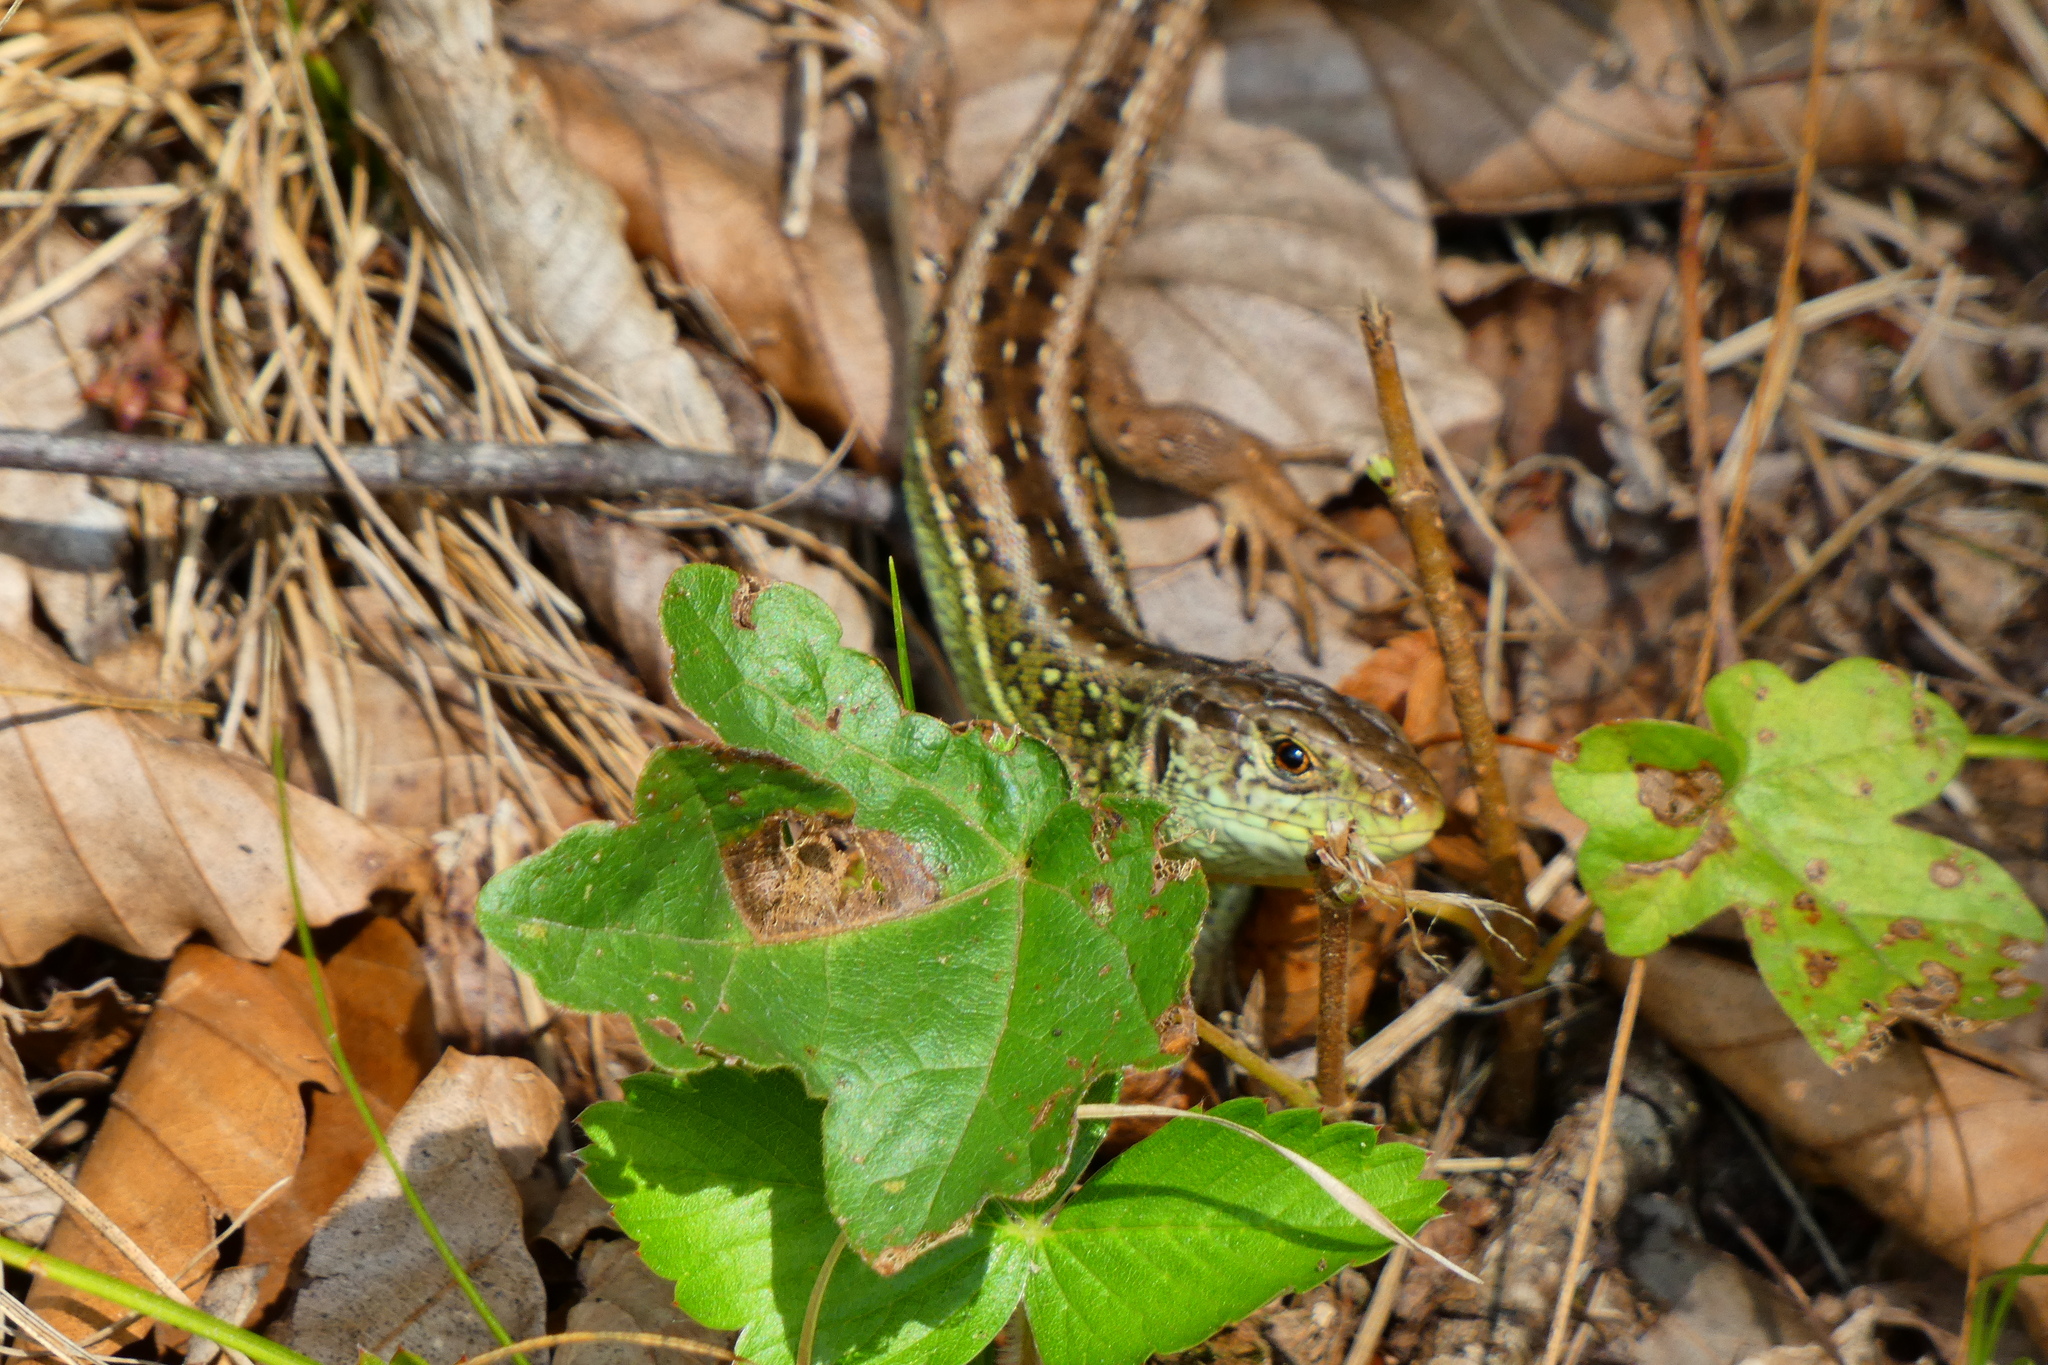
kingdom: Animalia
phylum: Chordata
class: Squamata
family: Lacertidae
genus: Lacerta
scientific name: Lacerta agilis
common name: Sand lizard
